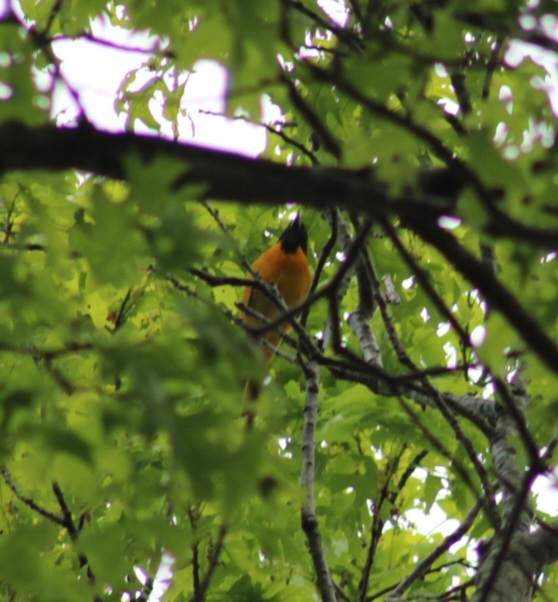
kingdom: Animalia
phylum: Chordata
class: Aves
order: Passeriformes
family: Icteridae
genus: Icterus
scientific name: Icterus galbula
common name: Baltimore oriole
